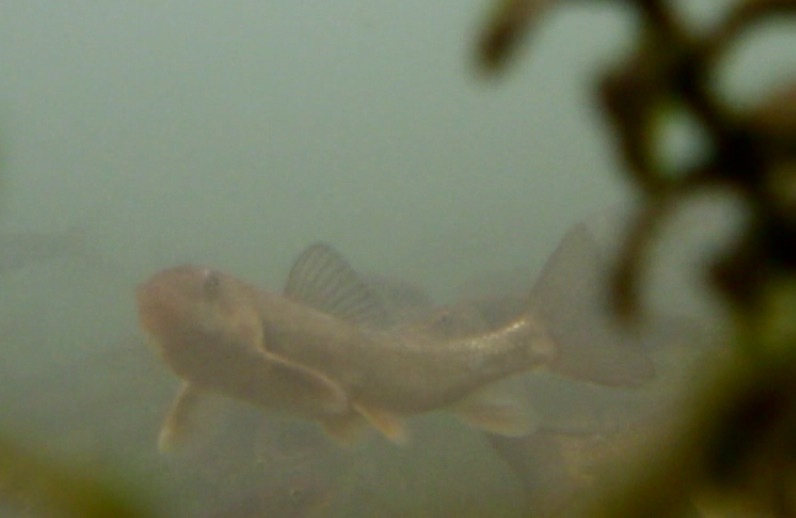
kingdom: Animalia
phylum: Chordata
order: Cypriniformes
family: Catostomidae
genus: Catostomus
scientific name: Catostomus commersonii
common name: White sucker
